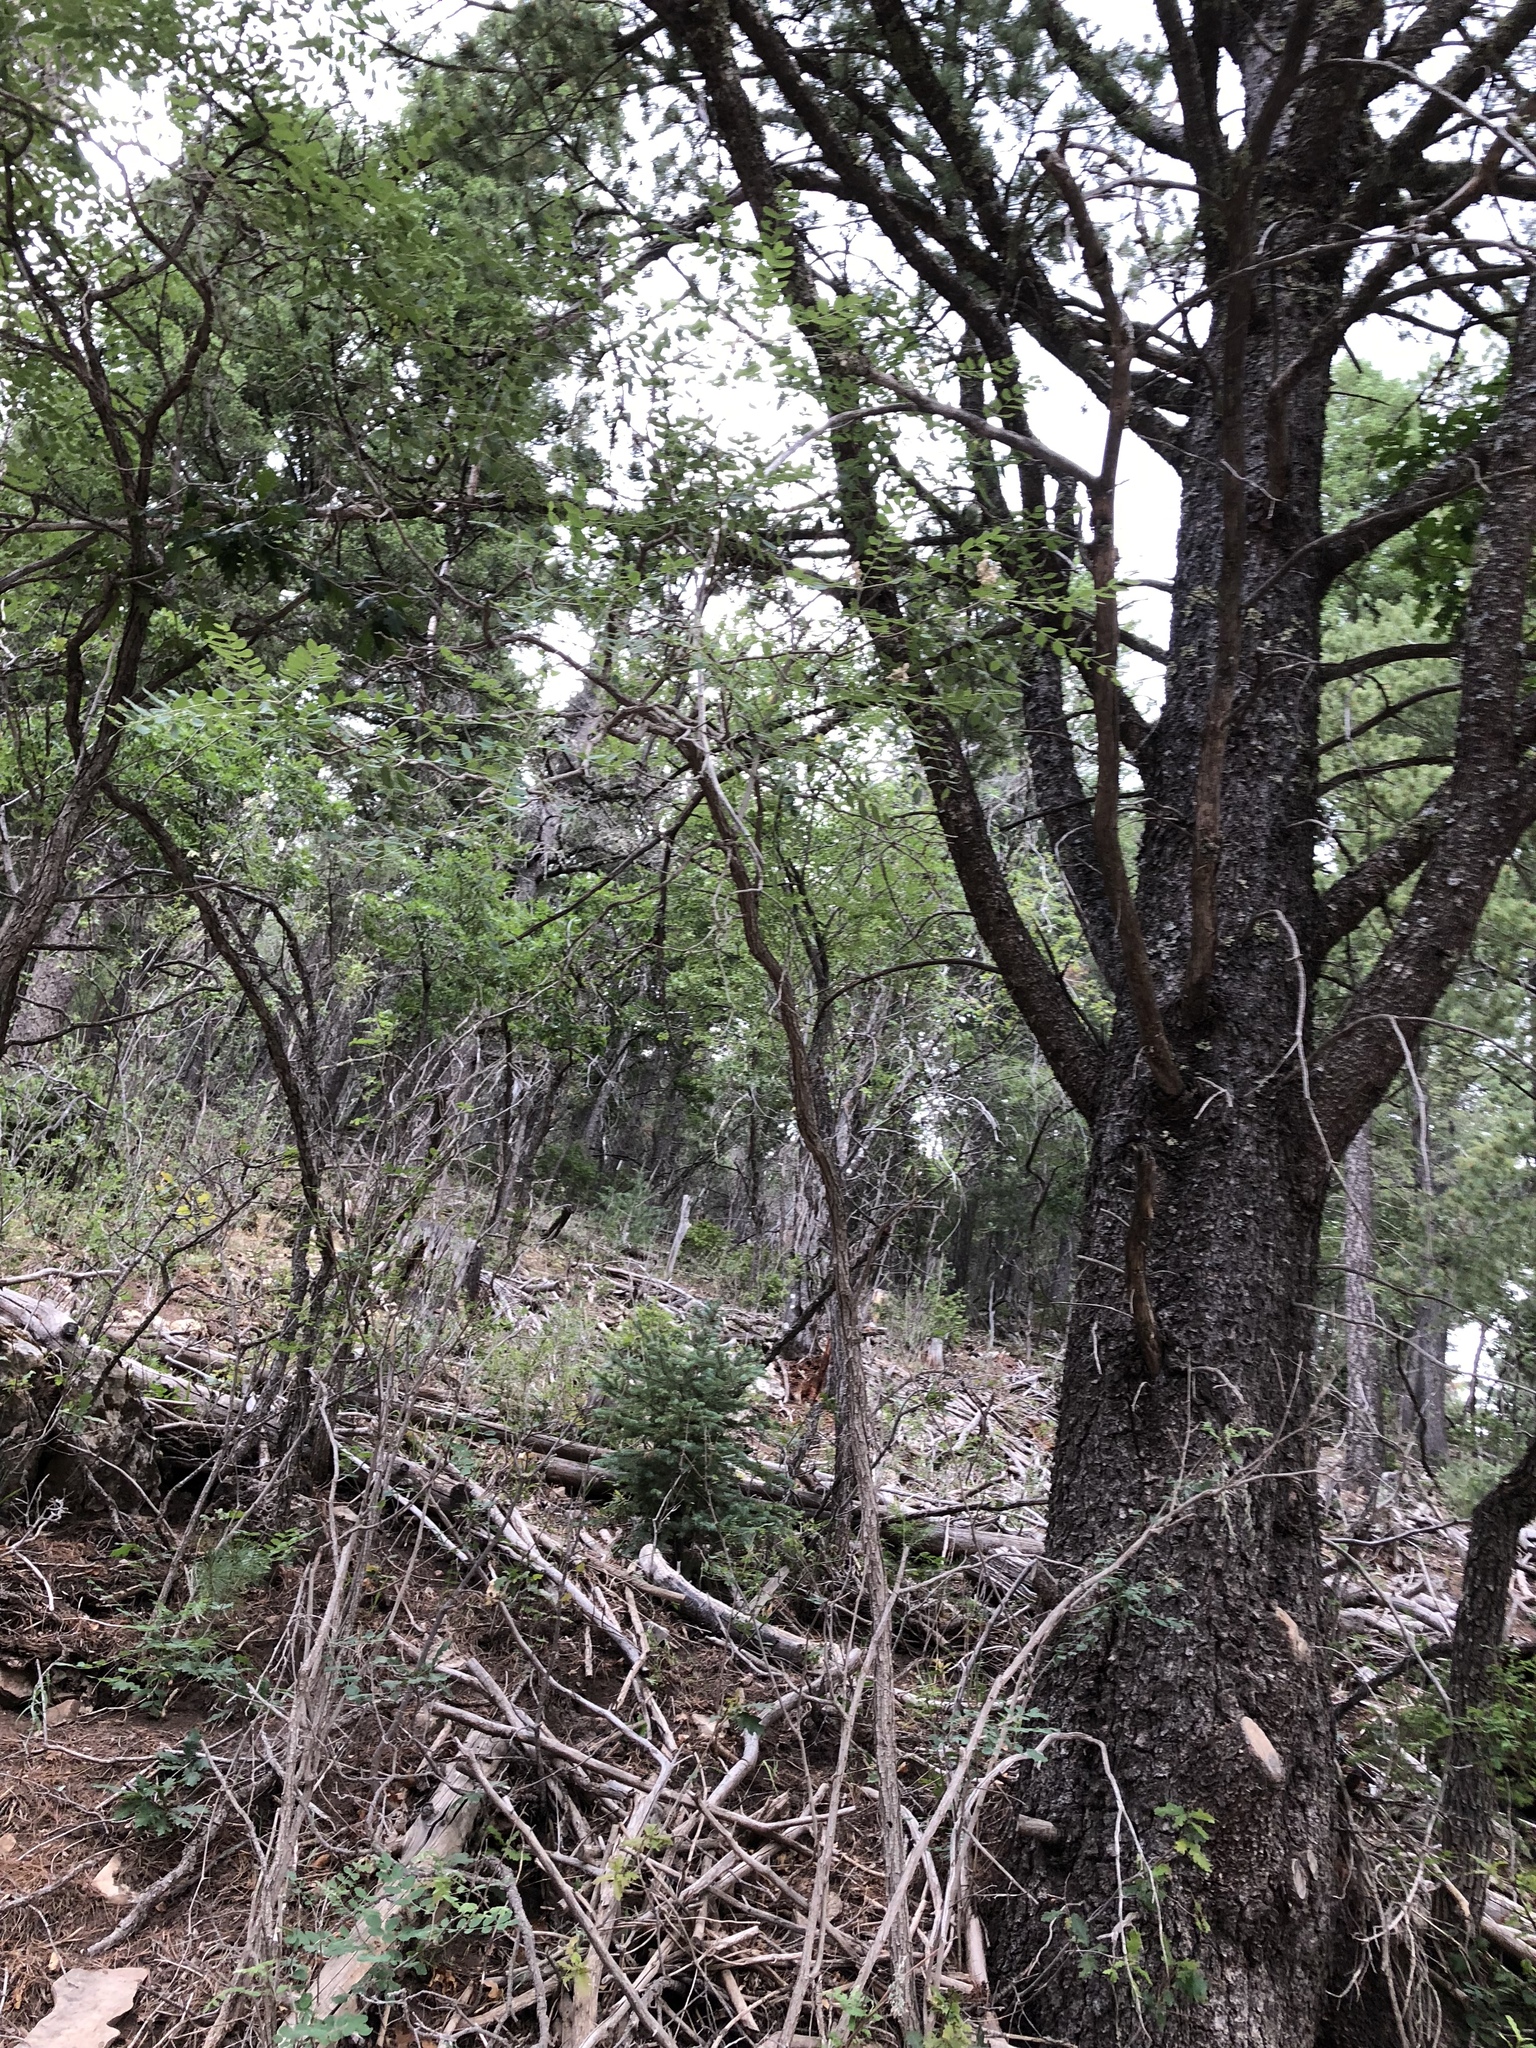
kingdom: Plantae
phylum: Tracheophyta
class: Pinopsida
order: Pinales
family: Pinaceae
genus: Pinus
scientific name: Pinus strobiformis
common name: Southwestern white pine
